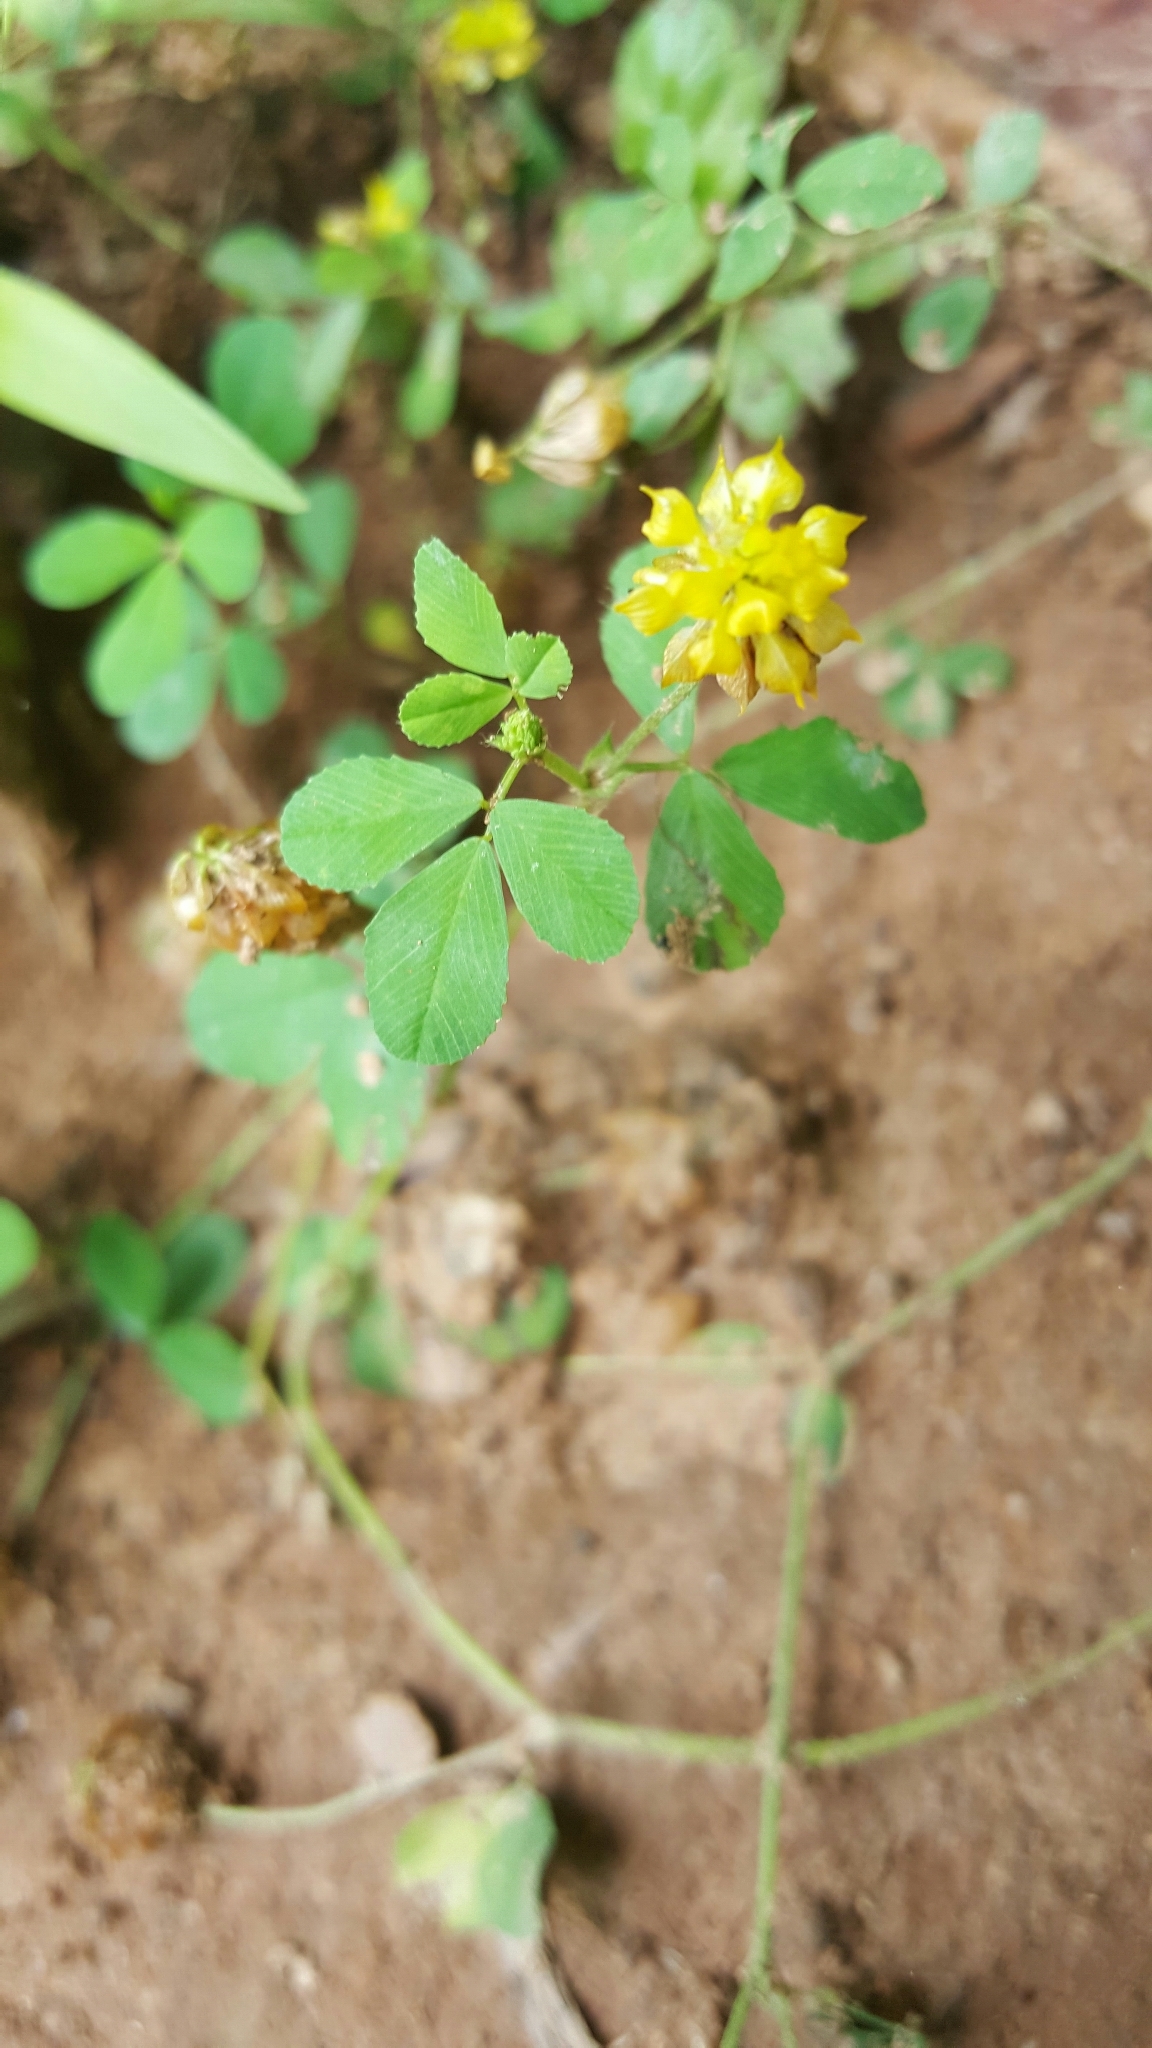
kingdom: Plantae
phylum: Tracheophyta
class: Magnoliopsida
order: Fabales
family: Fabaceae
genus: Trifolium
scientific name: Trifolium campestre
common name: Field clover
